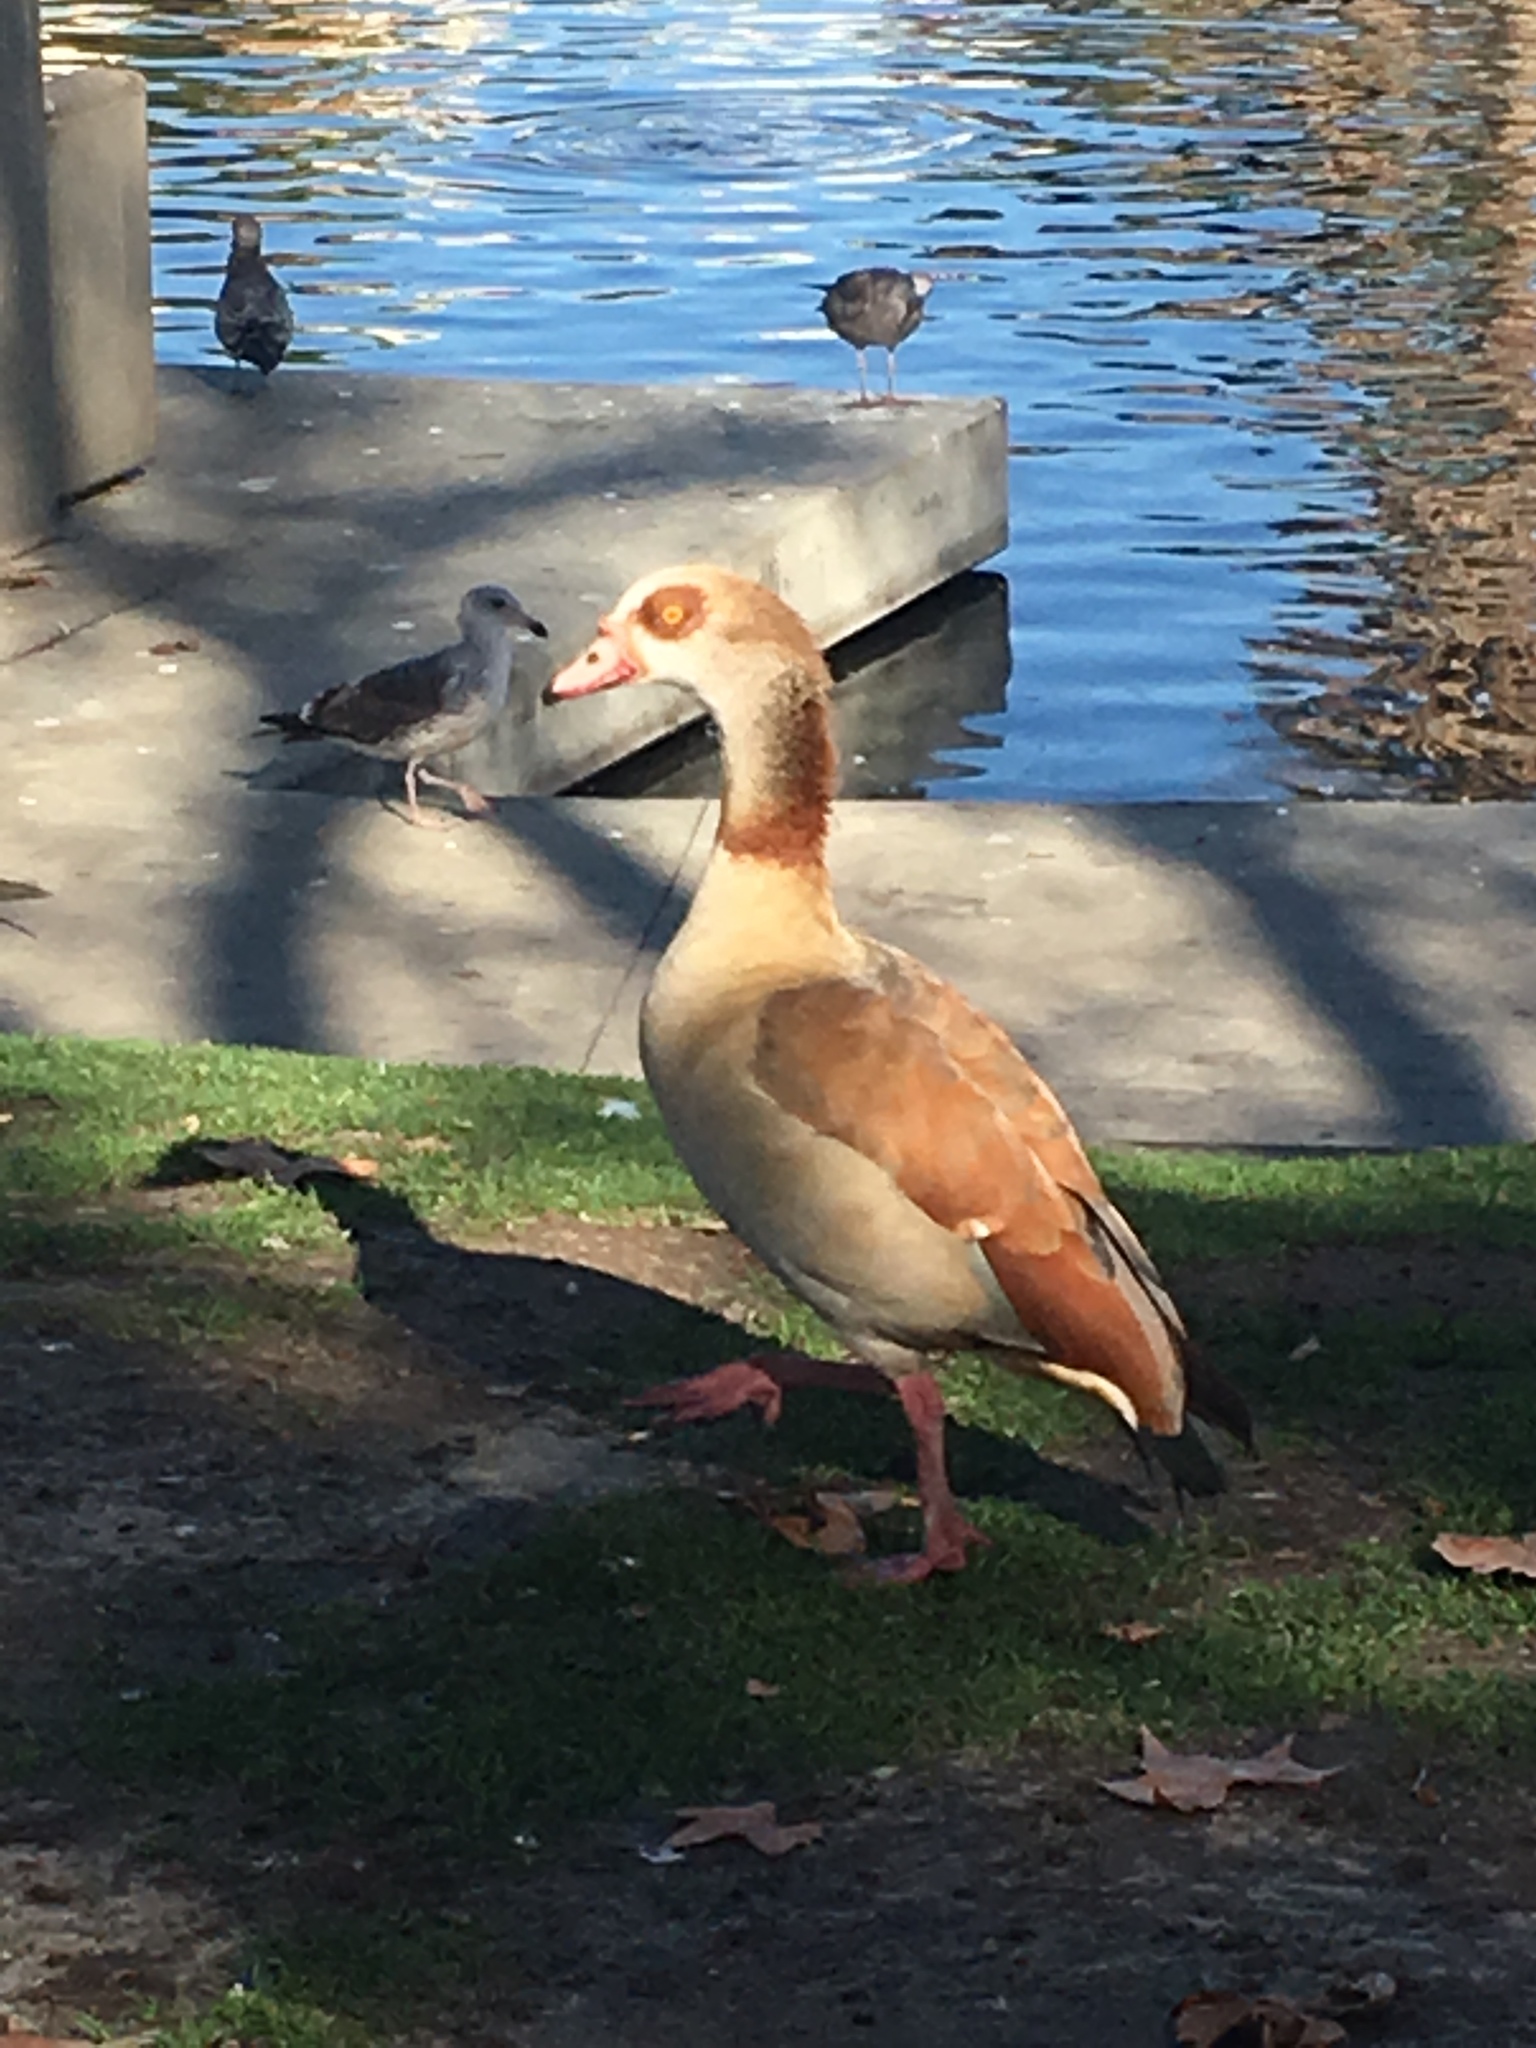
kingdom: Animalia
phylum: Chordata
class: Aves
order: Anseriformes
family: Anatidae
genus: Alopochen
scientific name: Alopochen aegyptiaca
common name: Egyptian goose
